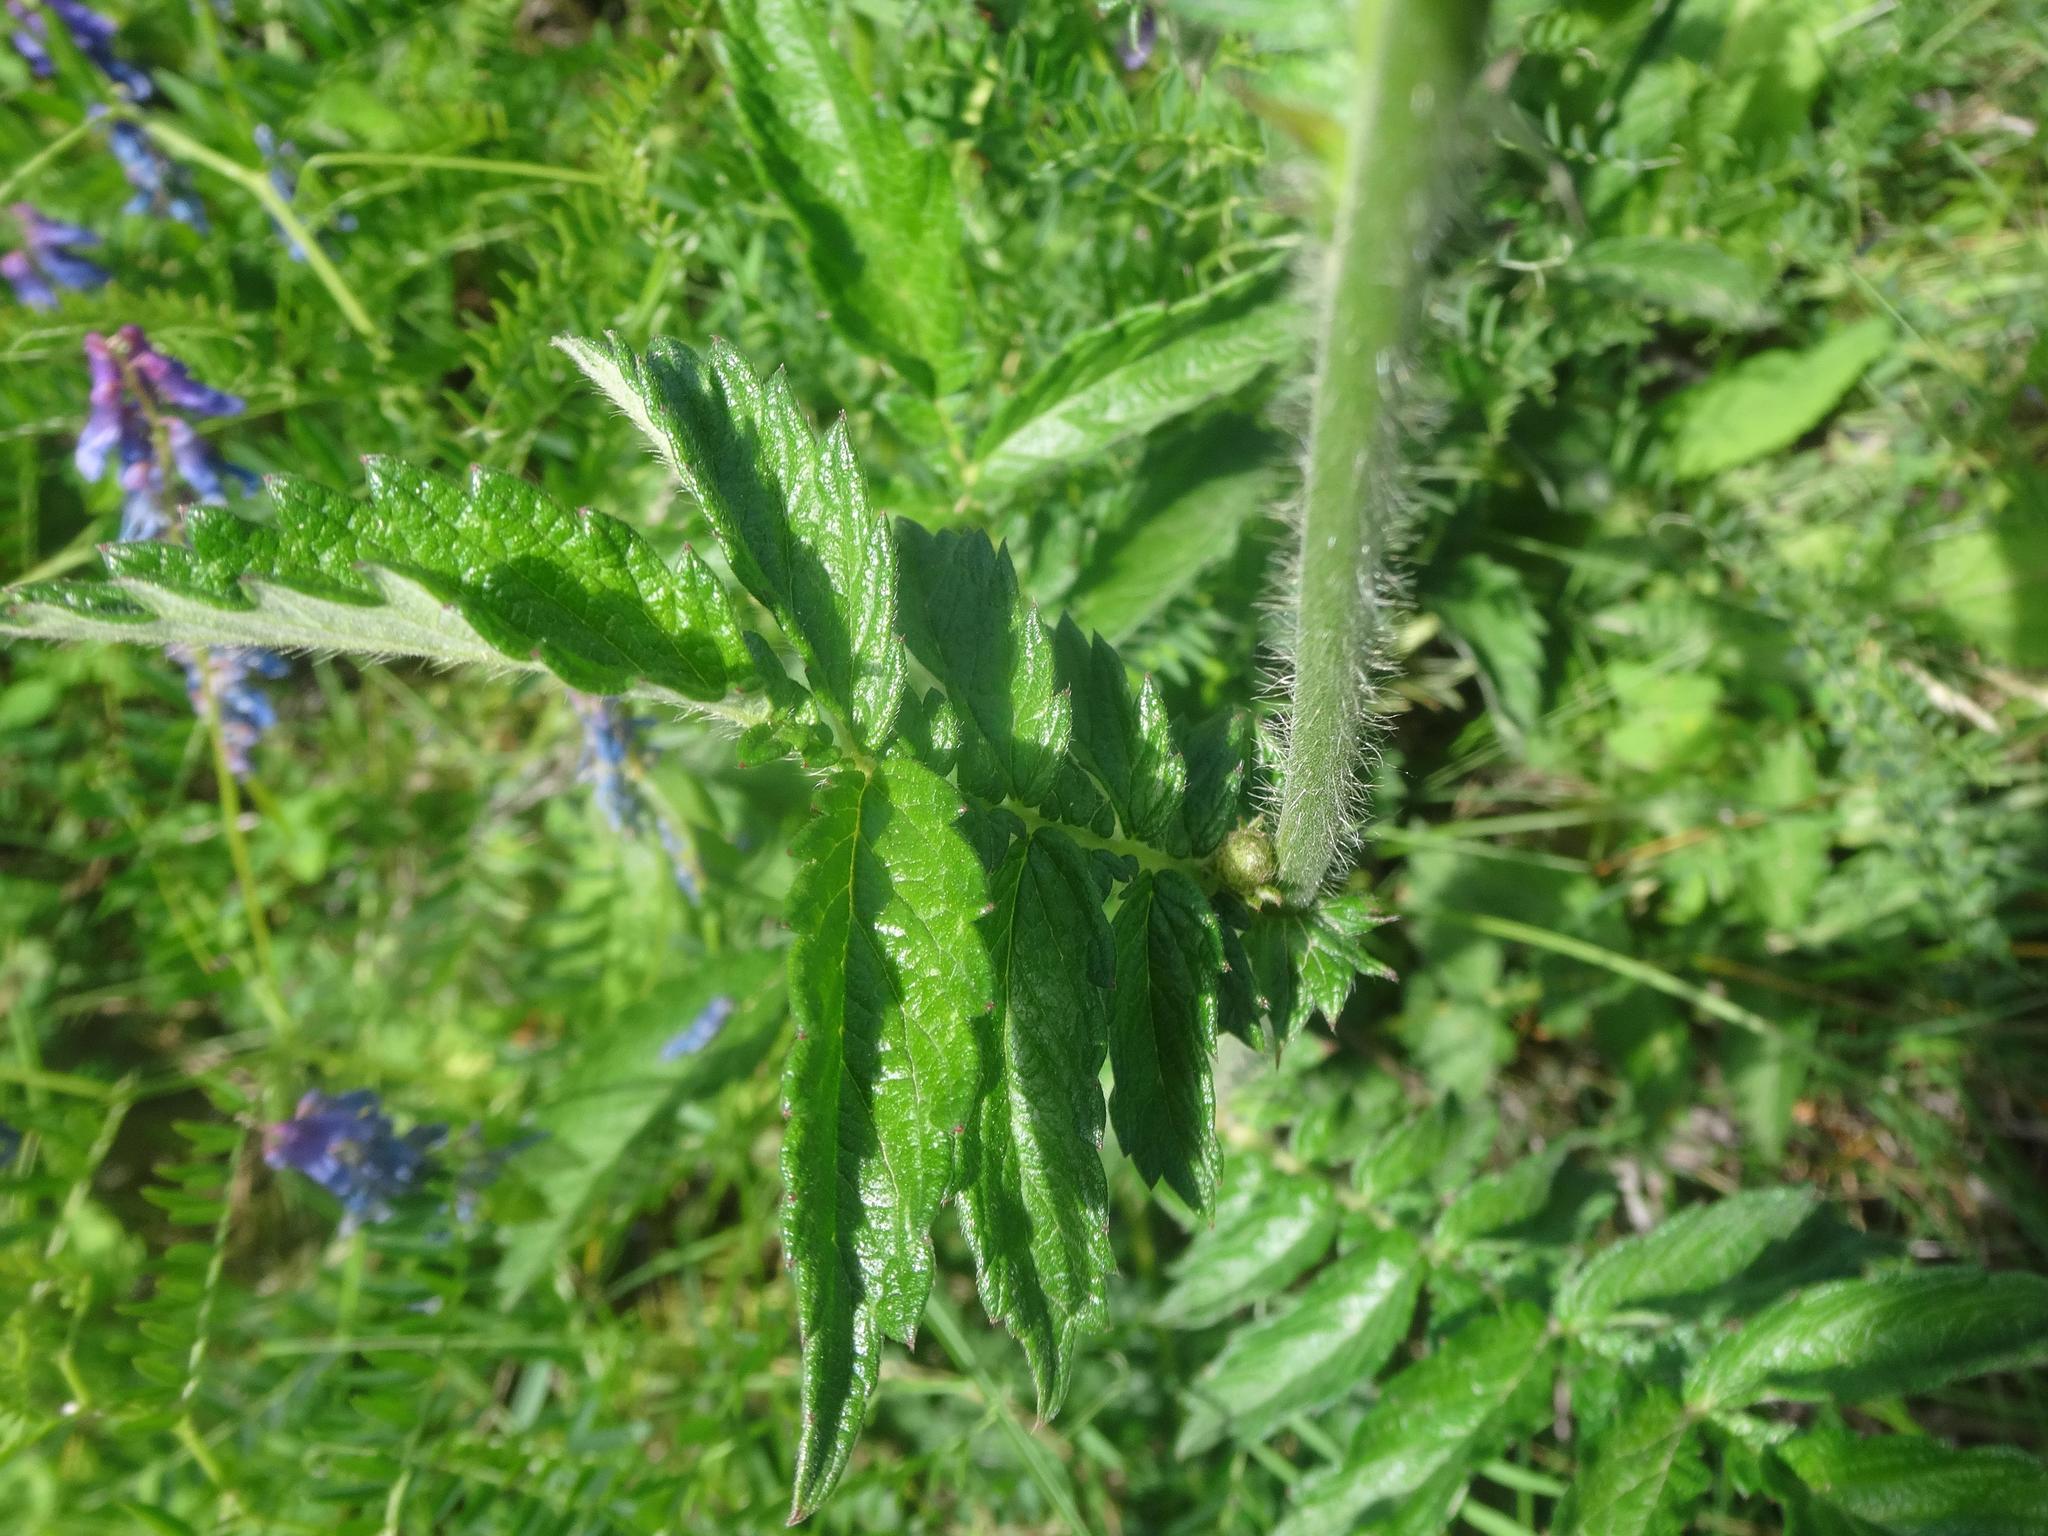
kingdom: Plantae
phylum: Tracheophyta
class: Magnoliopsida
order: Rosales
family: Rosaceae
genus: Agrimonia
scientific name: Agrimonia eupatoria
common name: Agrimony
